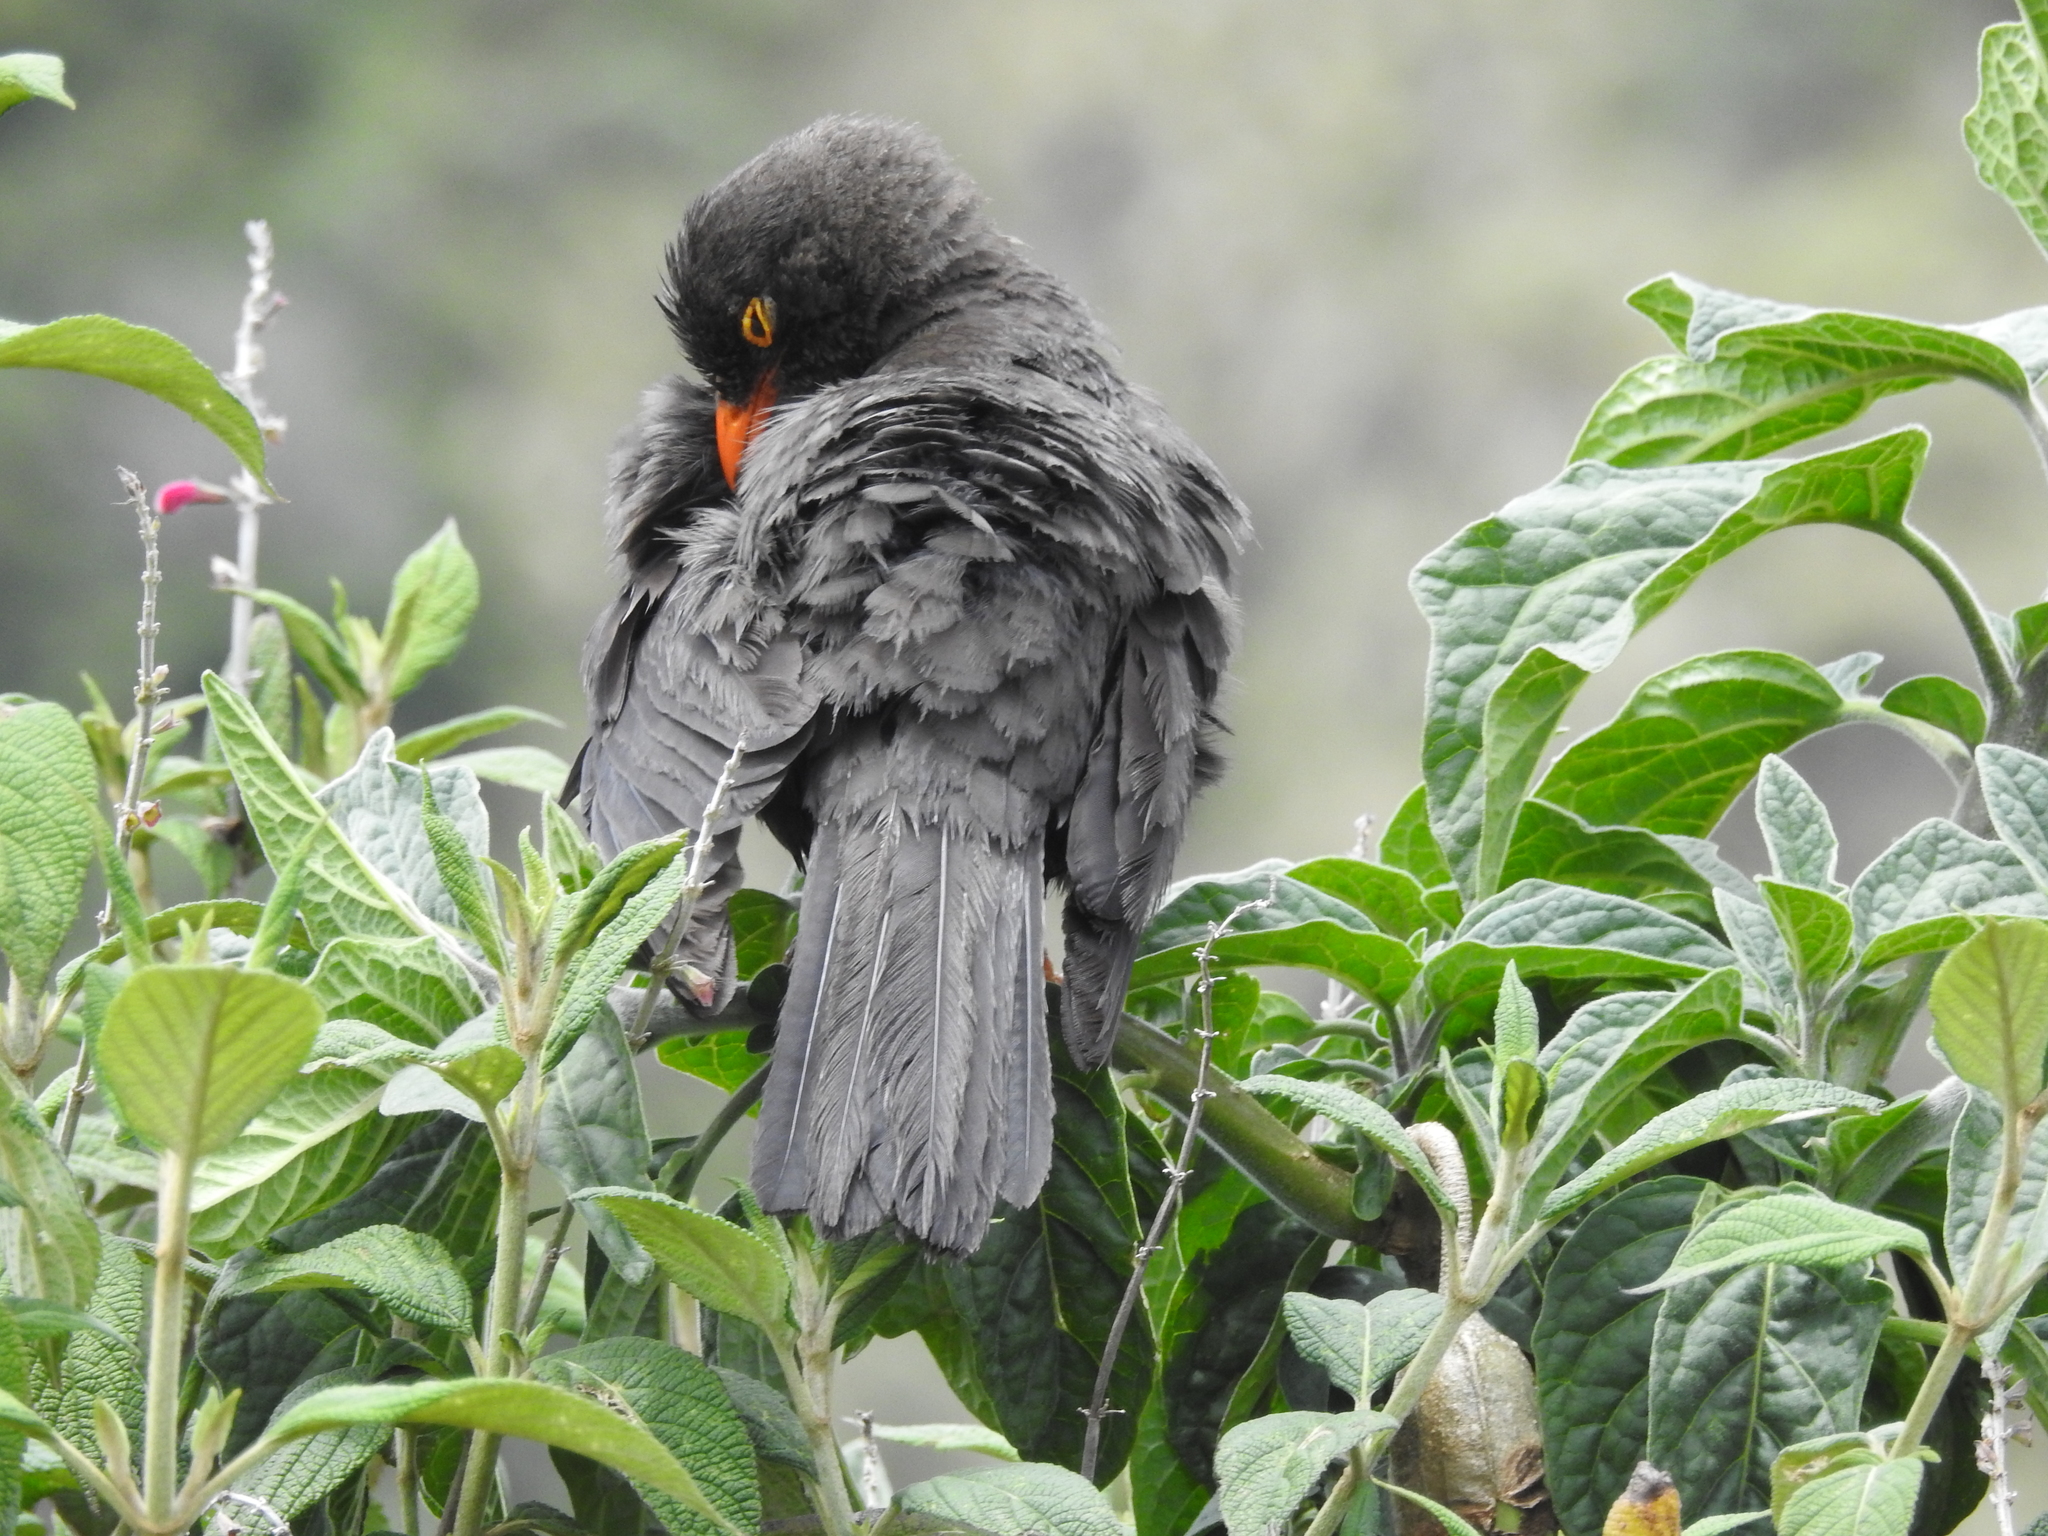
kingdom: Animalia
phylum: Chordata
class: Aves
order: Passeriformes
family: Turdidae
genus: Turdus
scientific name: Turdus fuscater
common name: Great thrush
